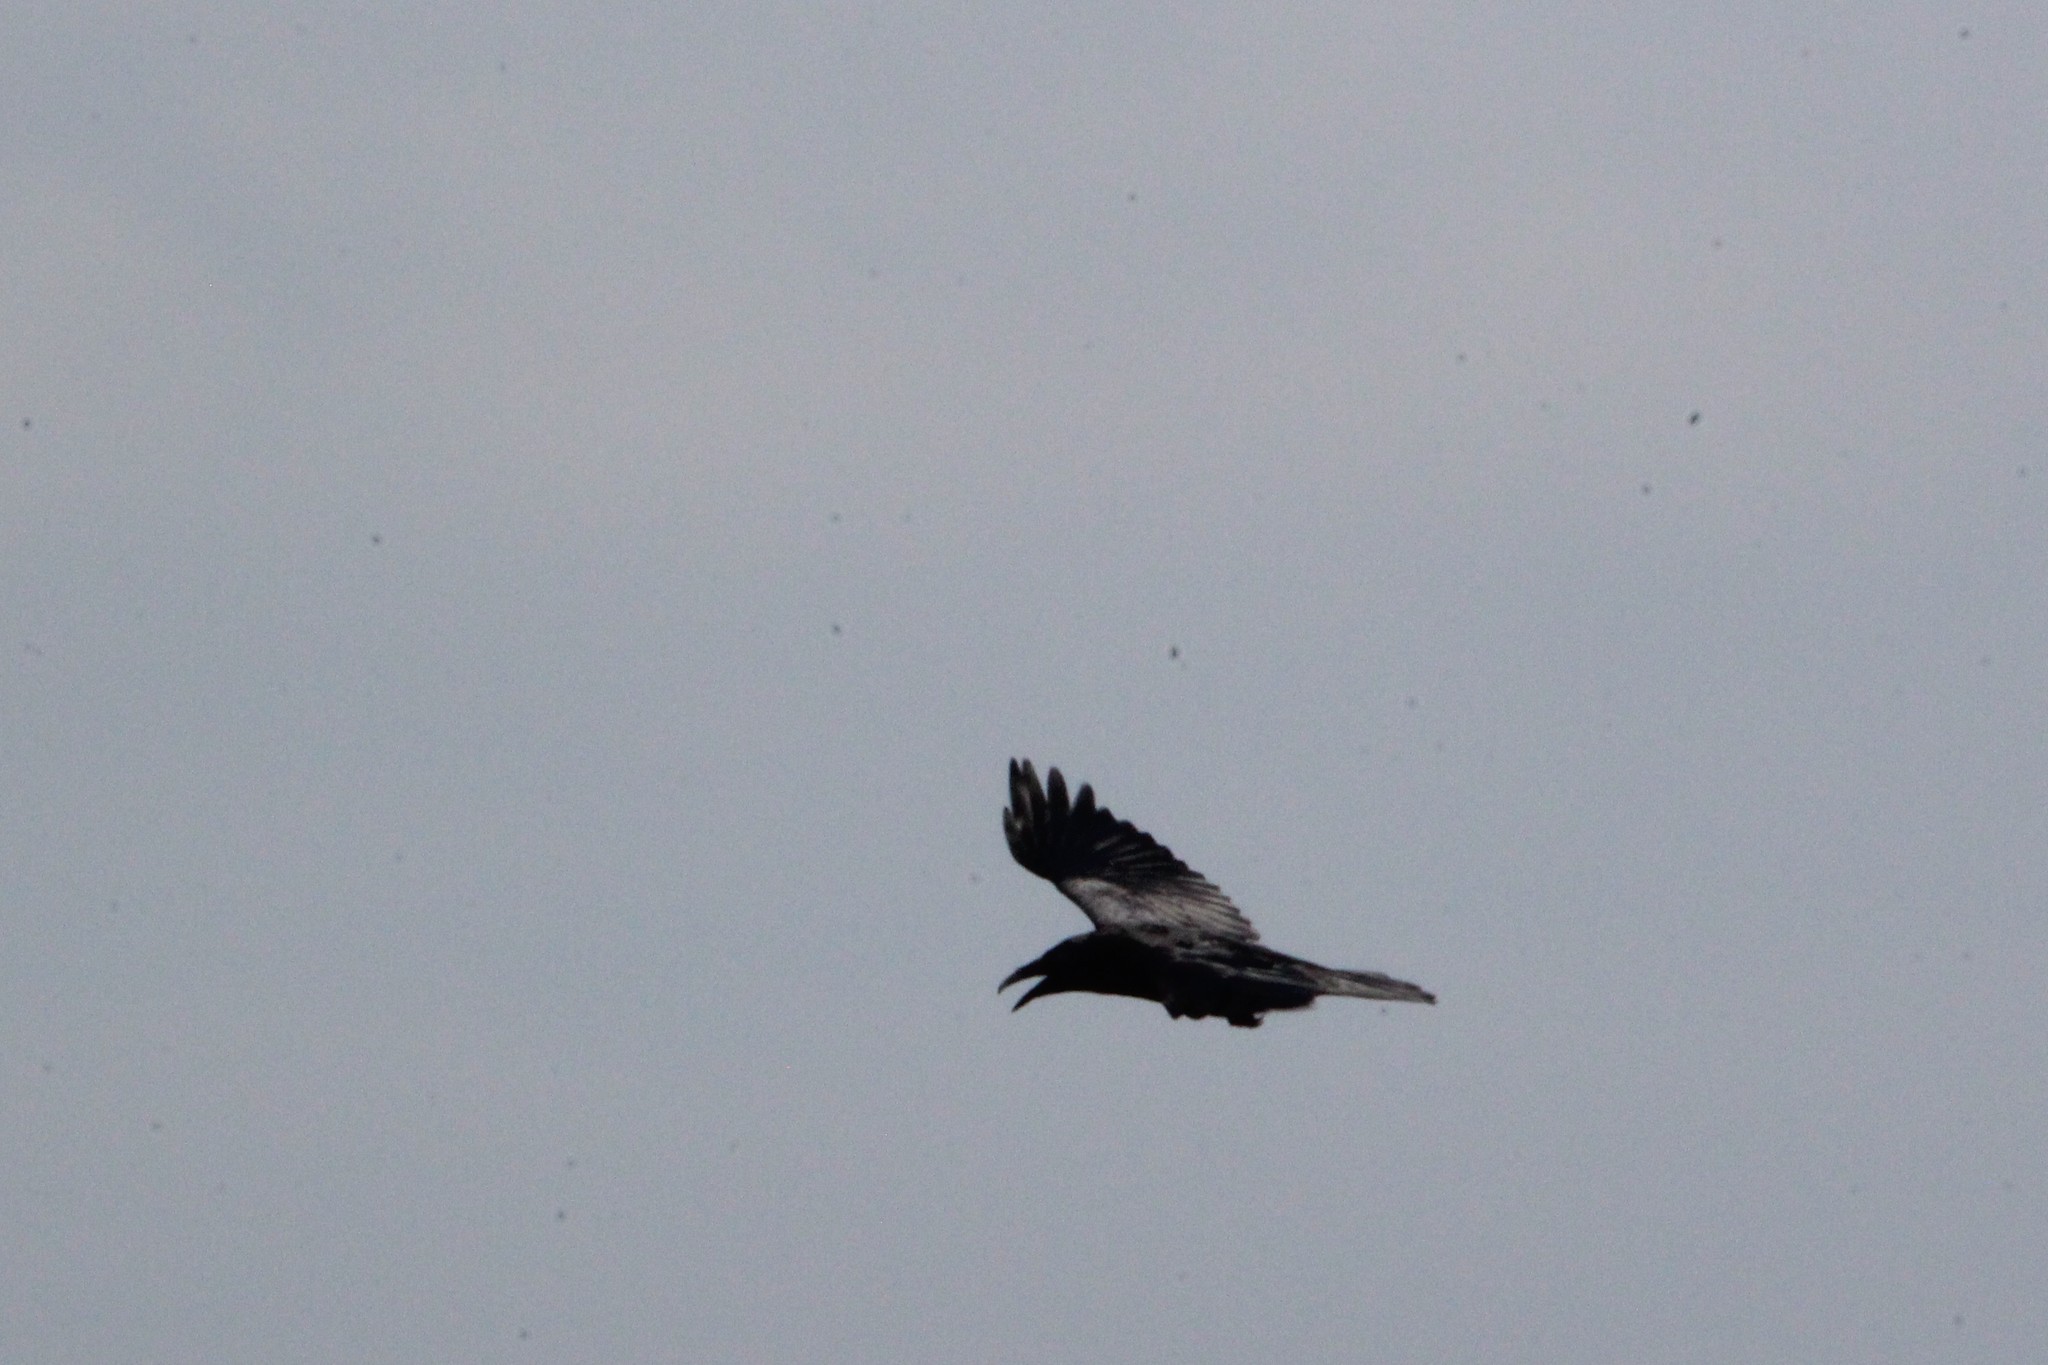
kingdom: Animalia
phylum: Chordata
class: Aves
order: Passeriformes
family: Corvidae
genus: Corvus
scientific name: Corvus corax
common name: Common raven
